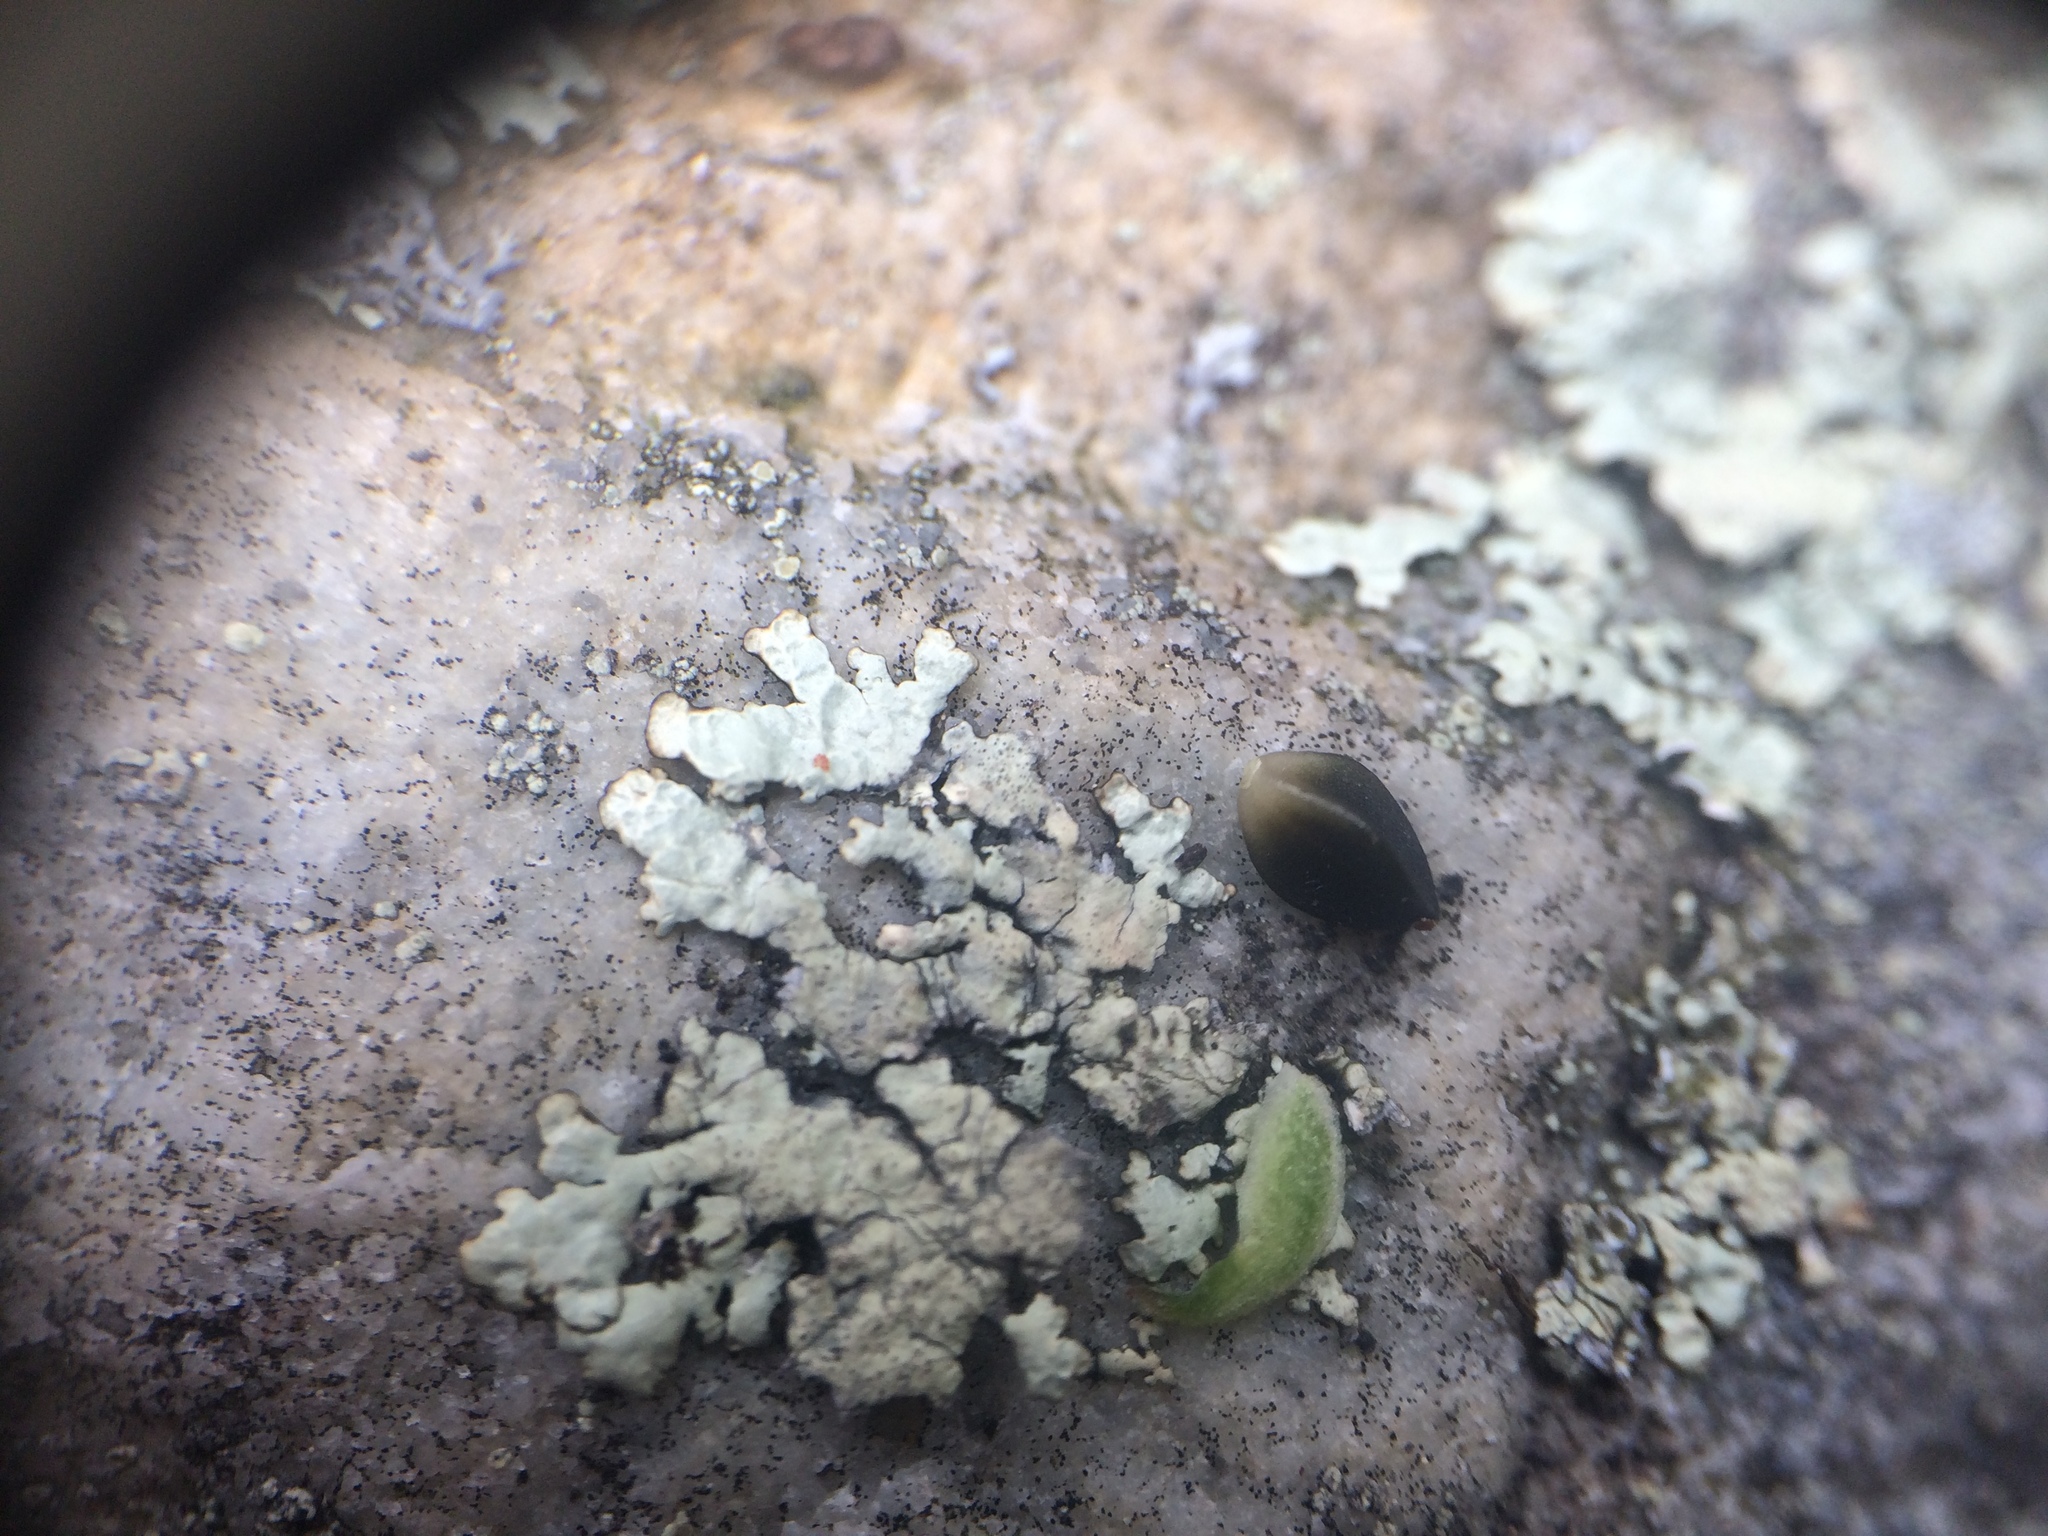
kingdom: Plantae
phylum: Tracheophyta
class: Magnoliopsida
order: Caryophyllales
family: Polygonaceae
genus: Fallopia
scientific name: Fallopia convolvulus
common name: Black bindweed
